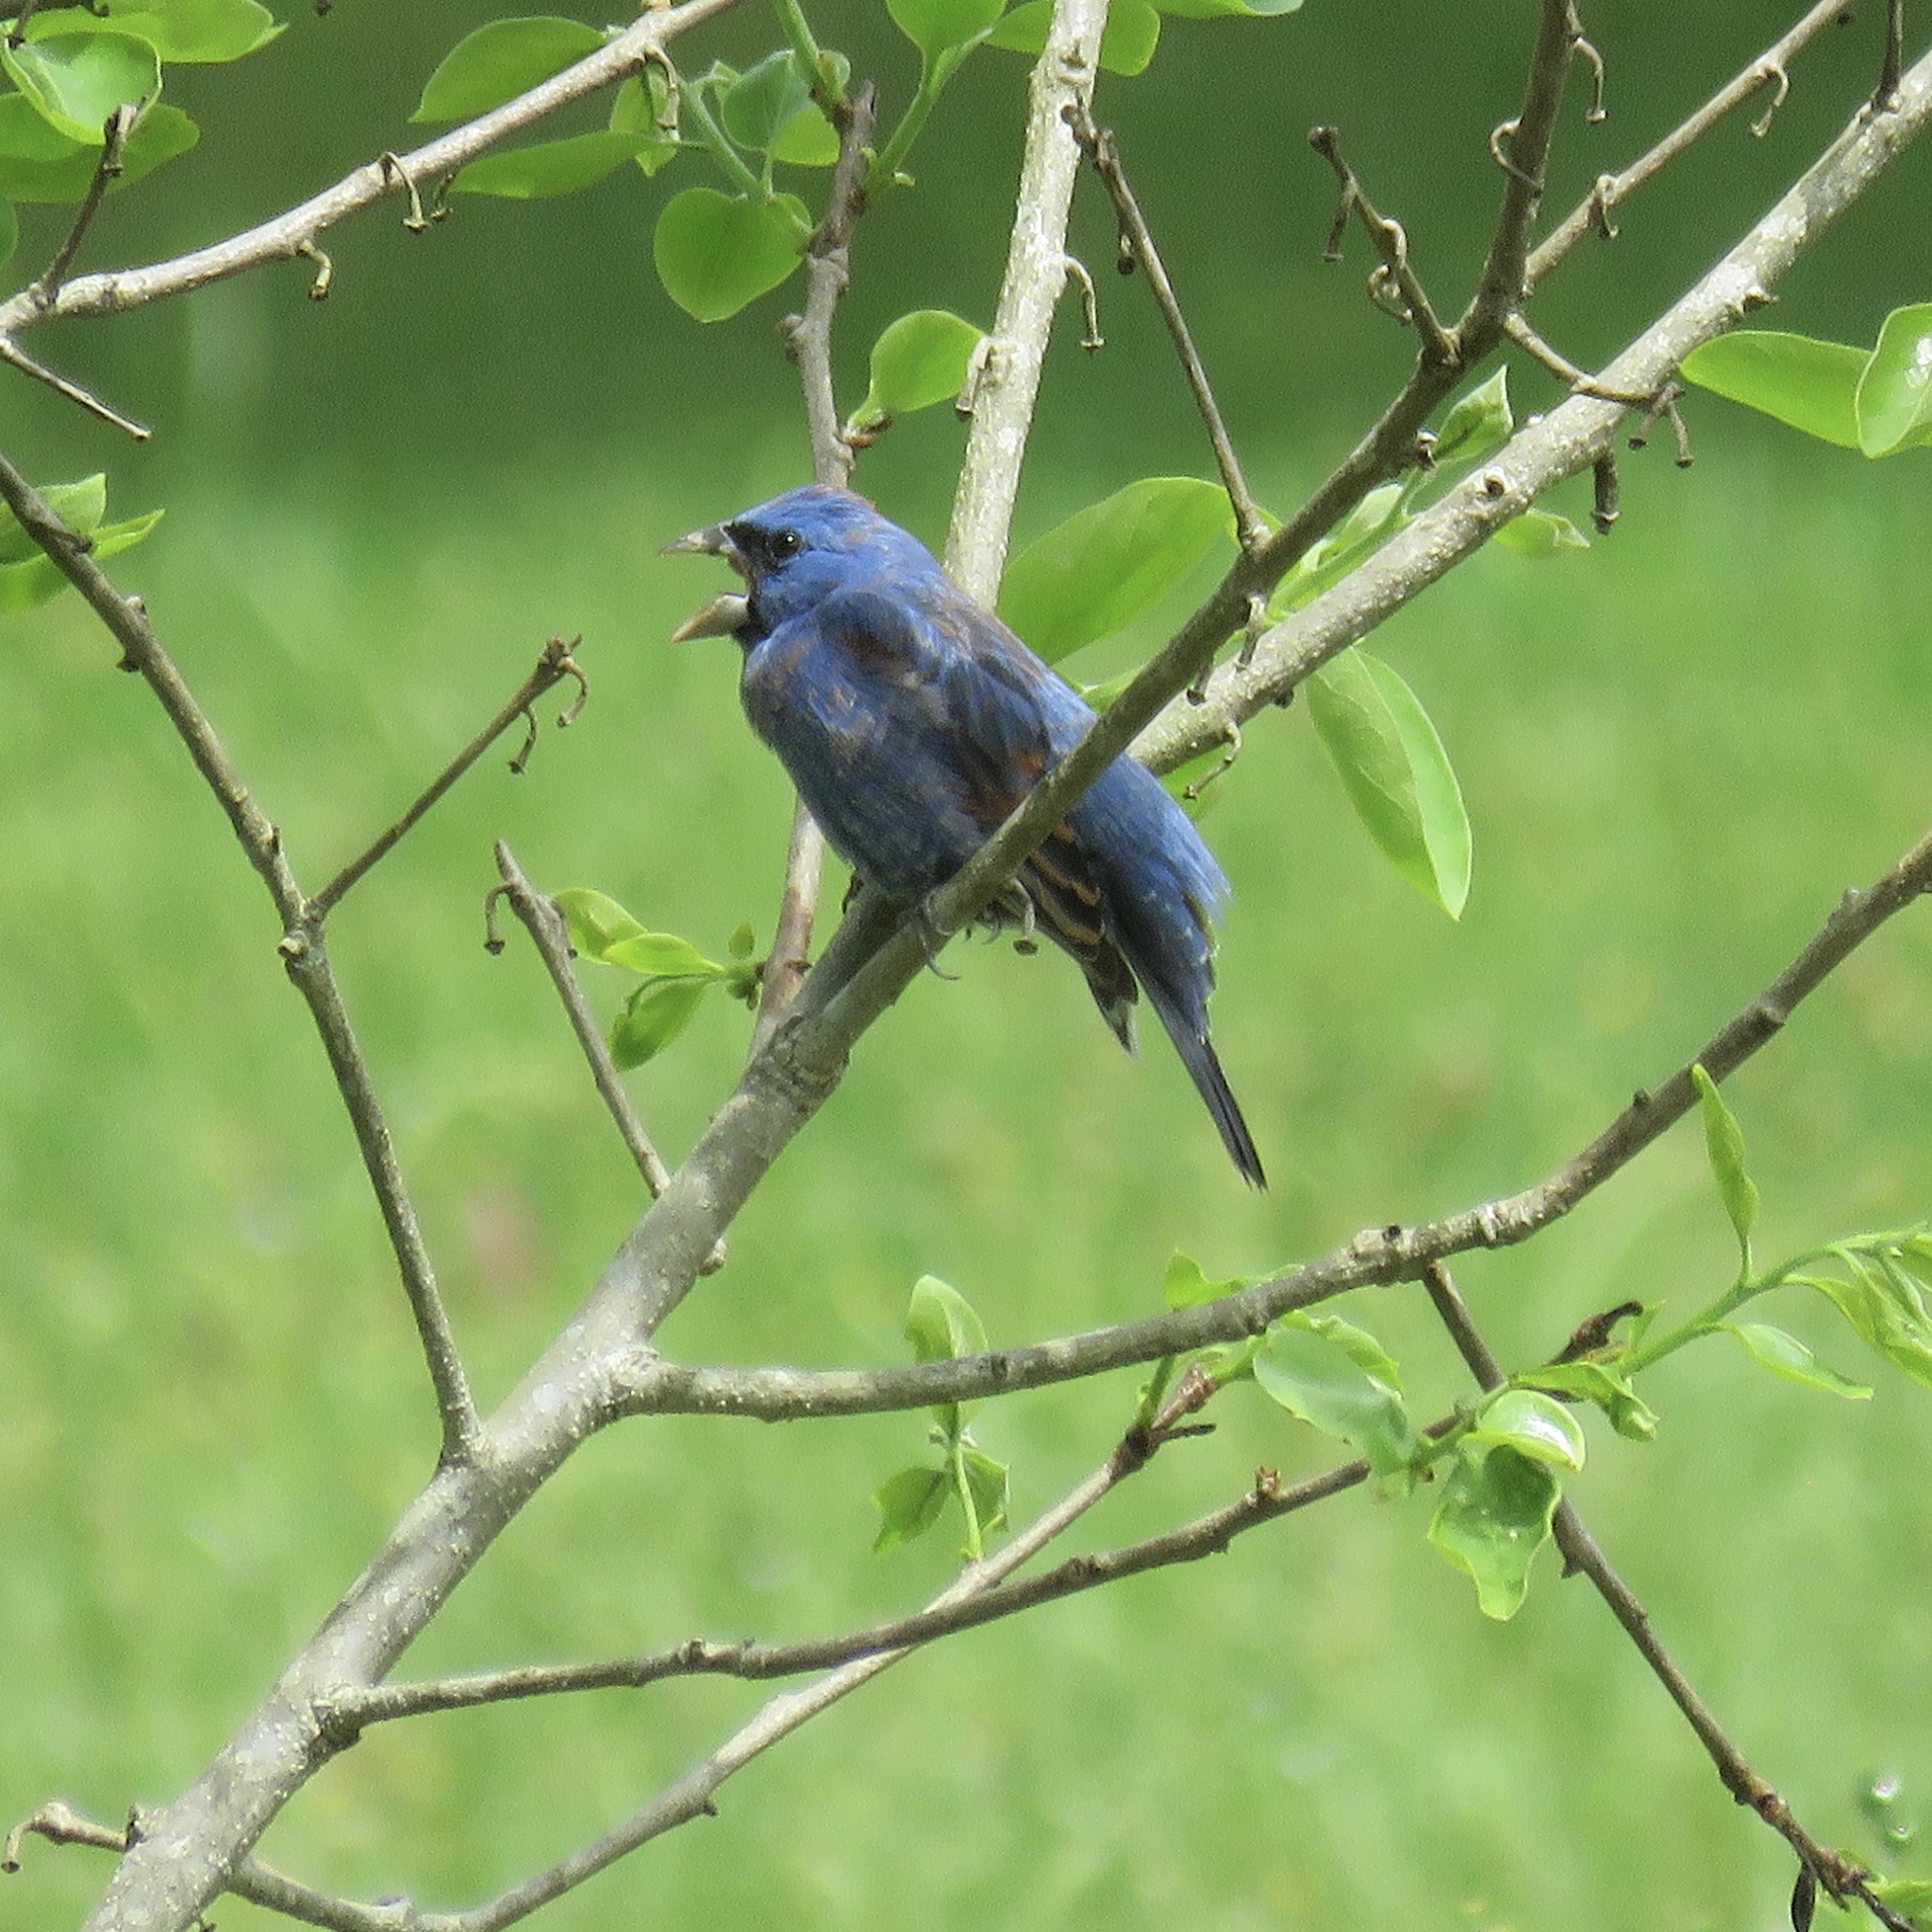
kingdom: Animalia
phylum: Chordata
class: Aves
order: Passeriformes
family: Cardinalidae
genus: Passerina
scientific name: Passerina caerulea
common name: Blue grosbeak
